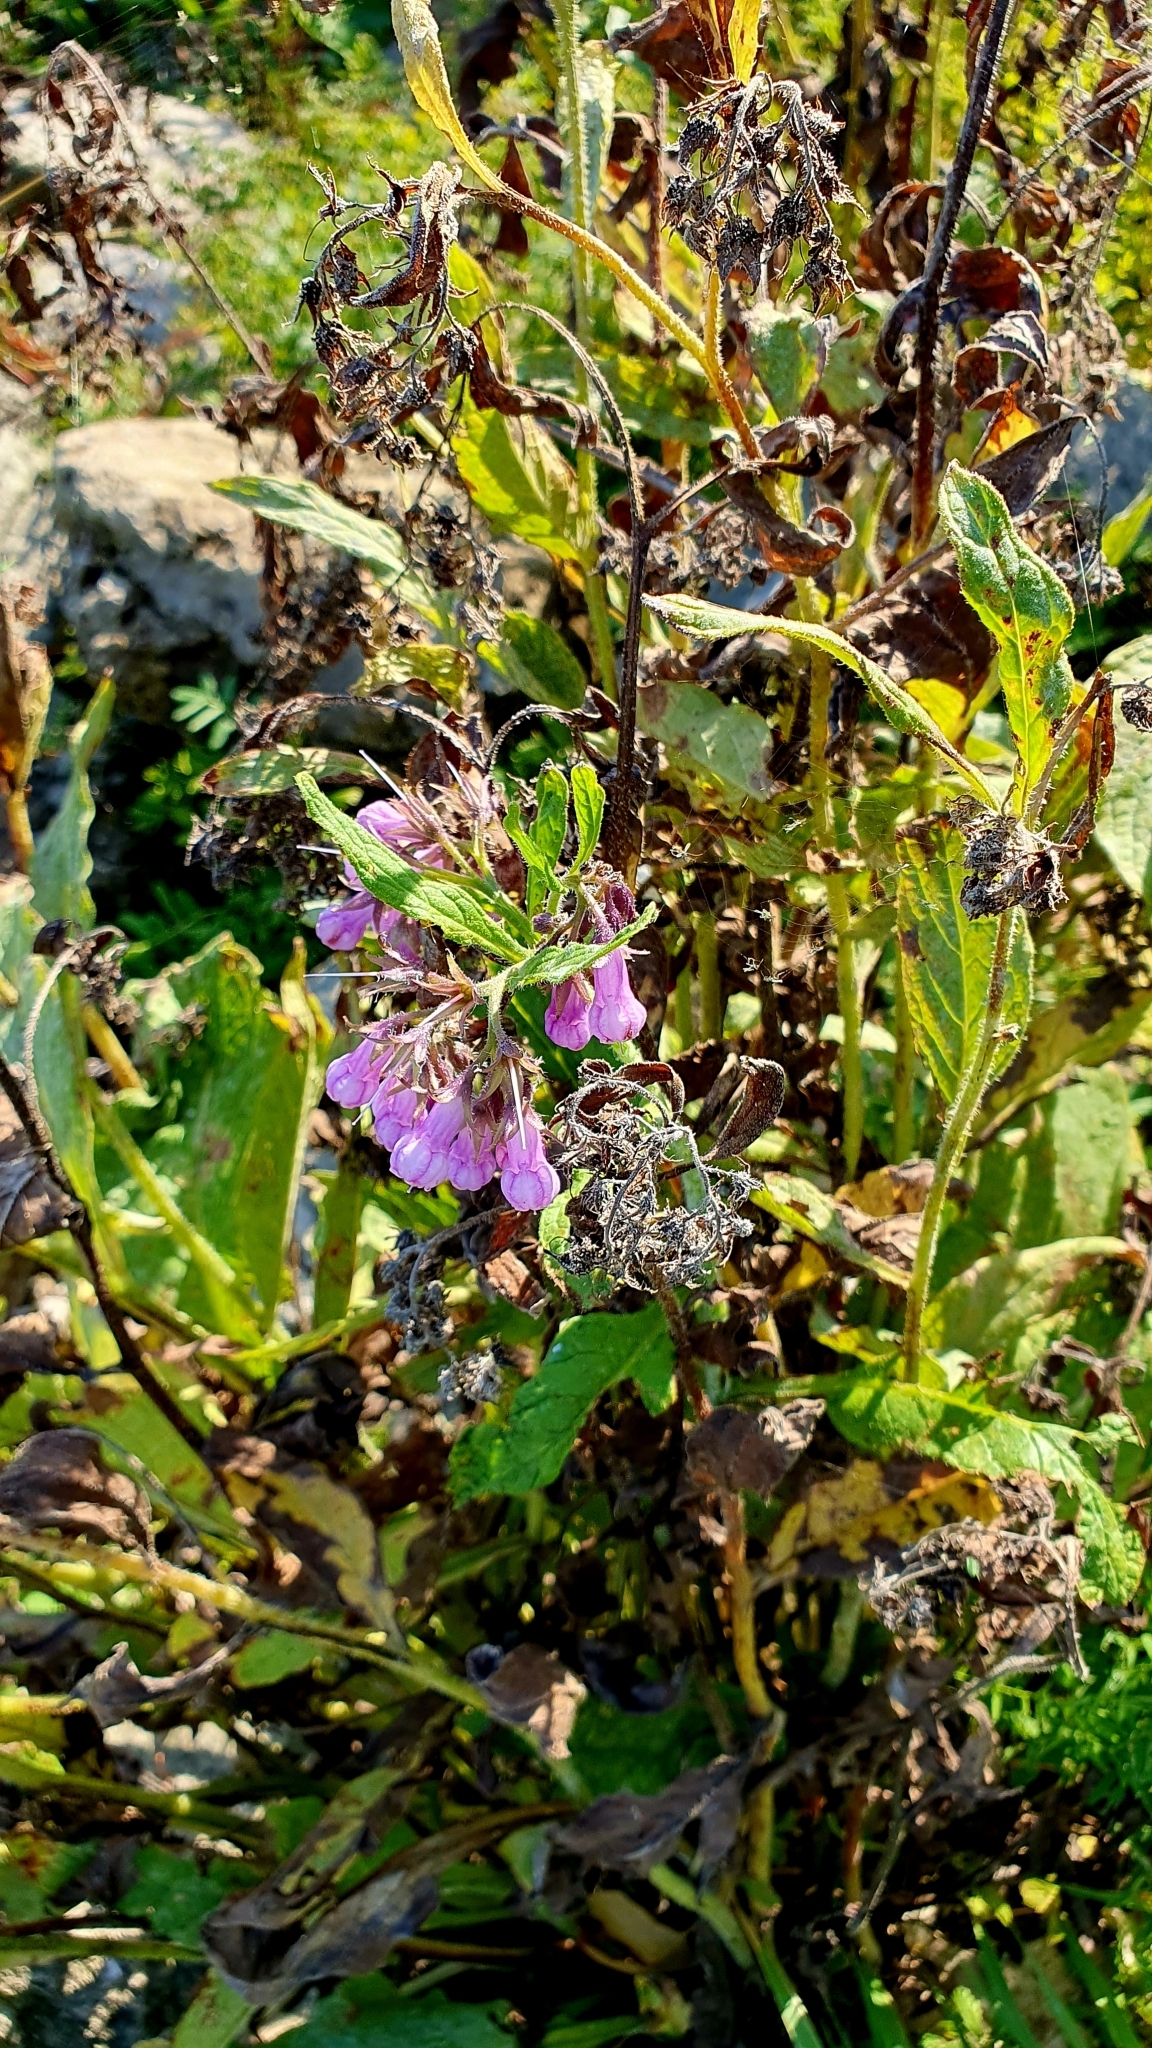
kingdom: Plantae
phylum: Tracheophyta
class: Magnoliopsida
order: Boraginales
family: Boraginaceae
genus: Symphytum
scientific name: Symphytum officinale
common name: Common comfrey
